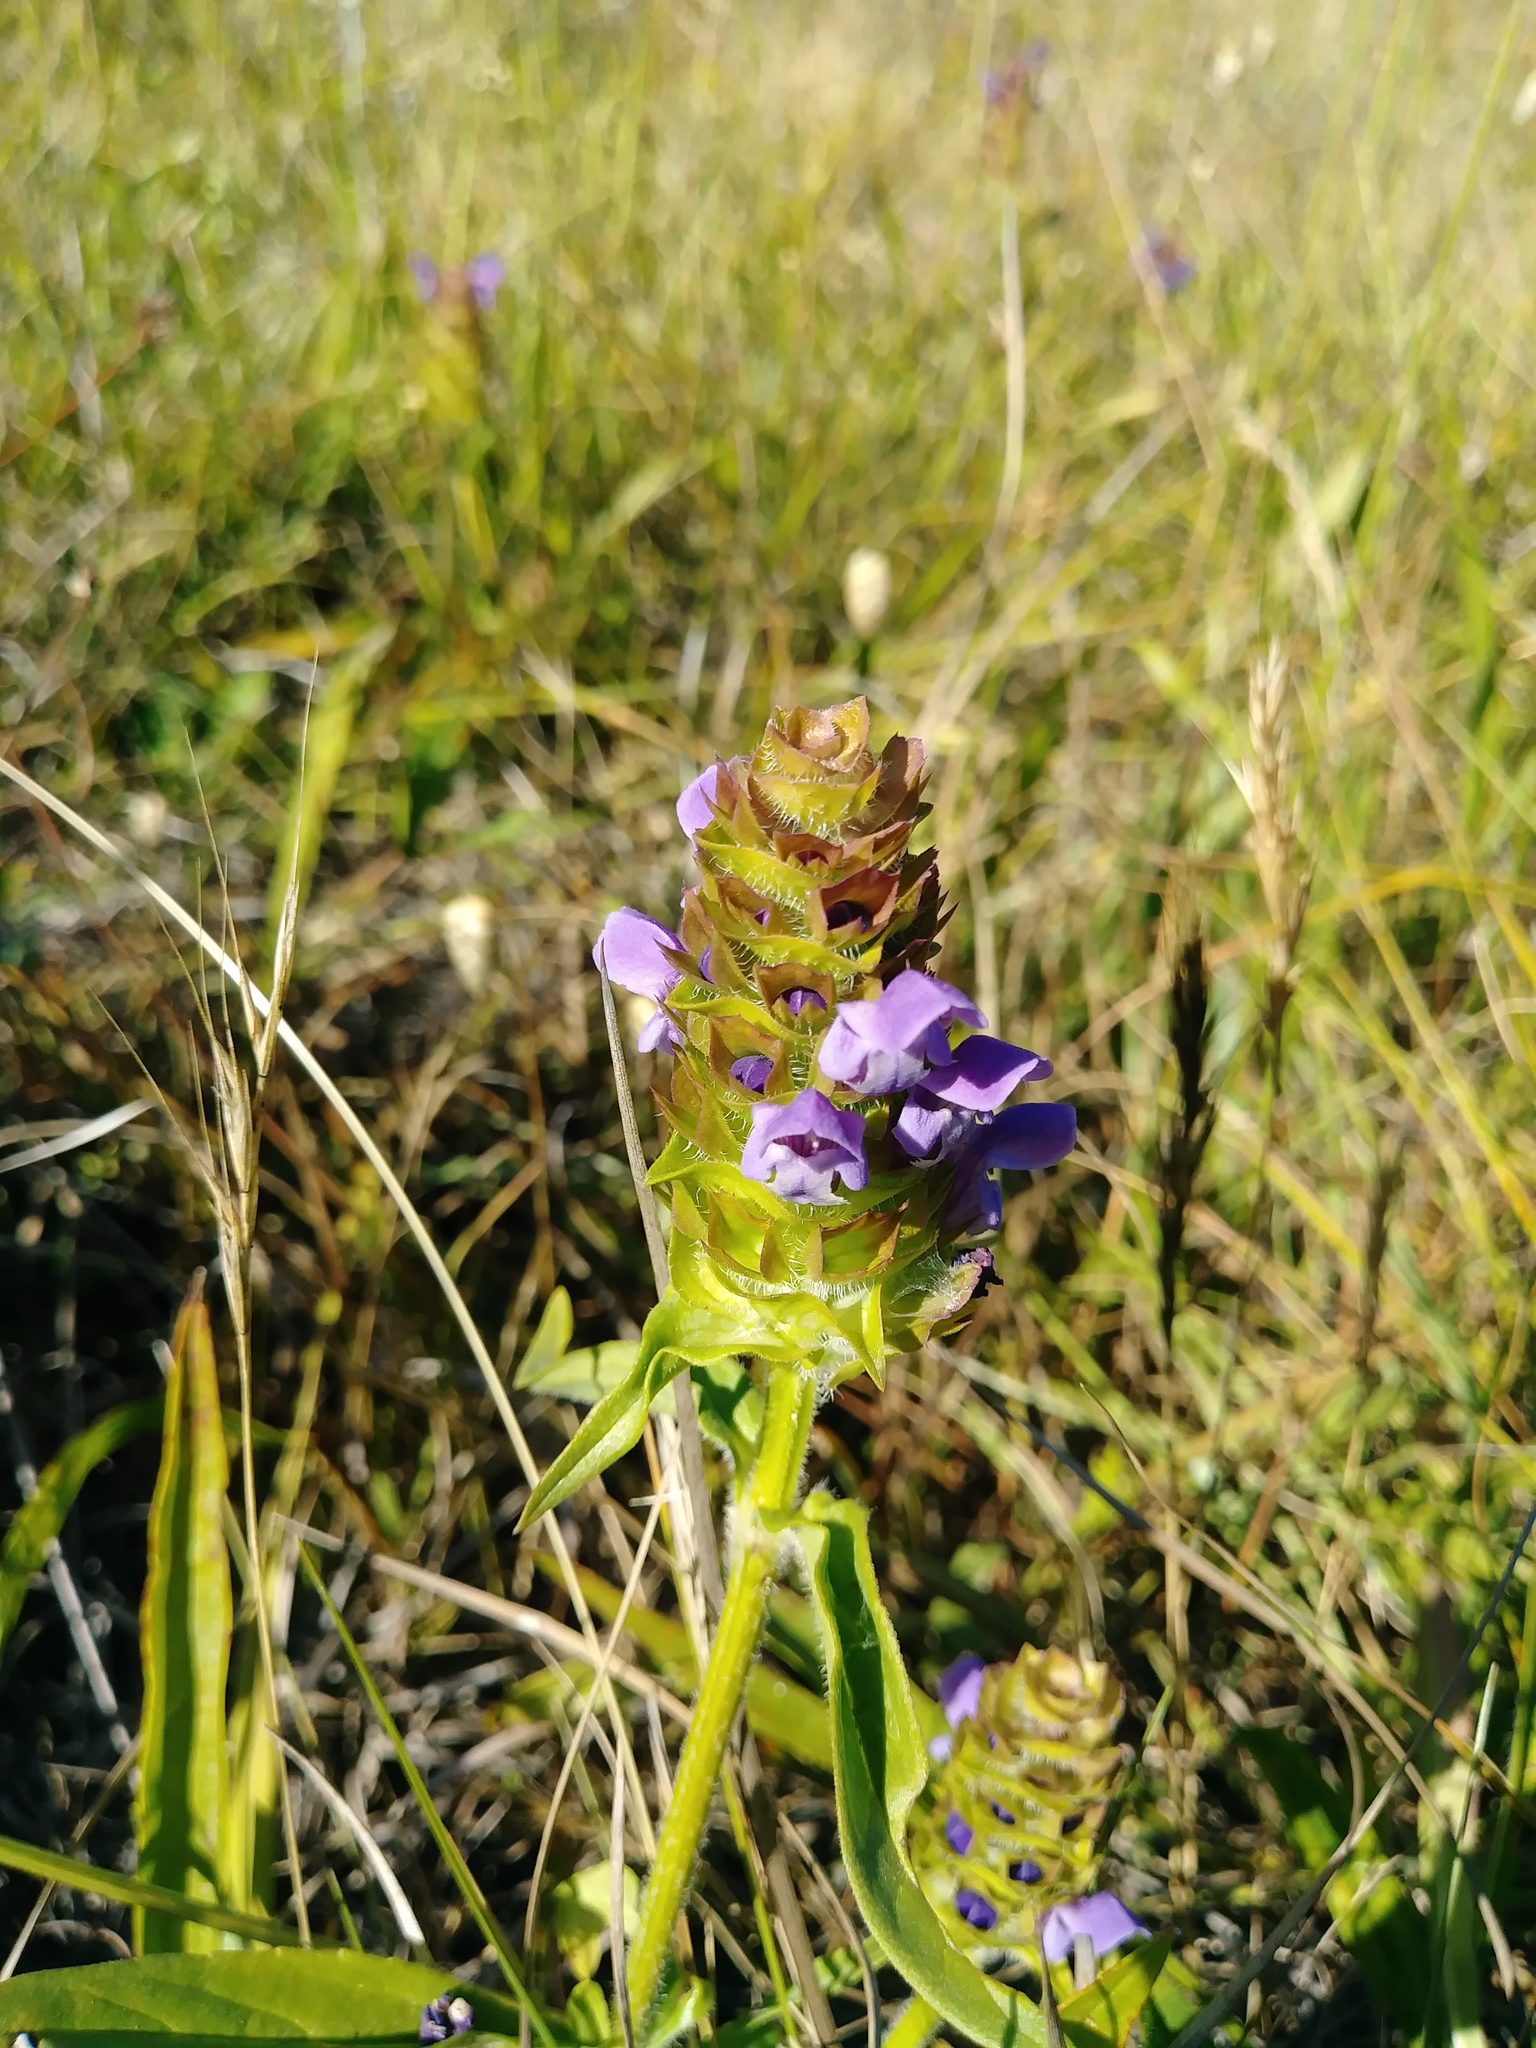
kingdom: Plantae
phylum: Tracheophyta
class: Magnoliopsida
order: Lamiales
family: Lamiaceae
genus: Prunella
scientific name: Prunella vulgaris
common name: Heal-all
